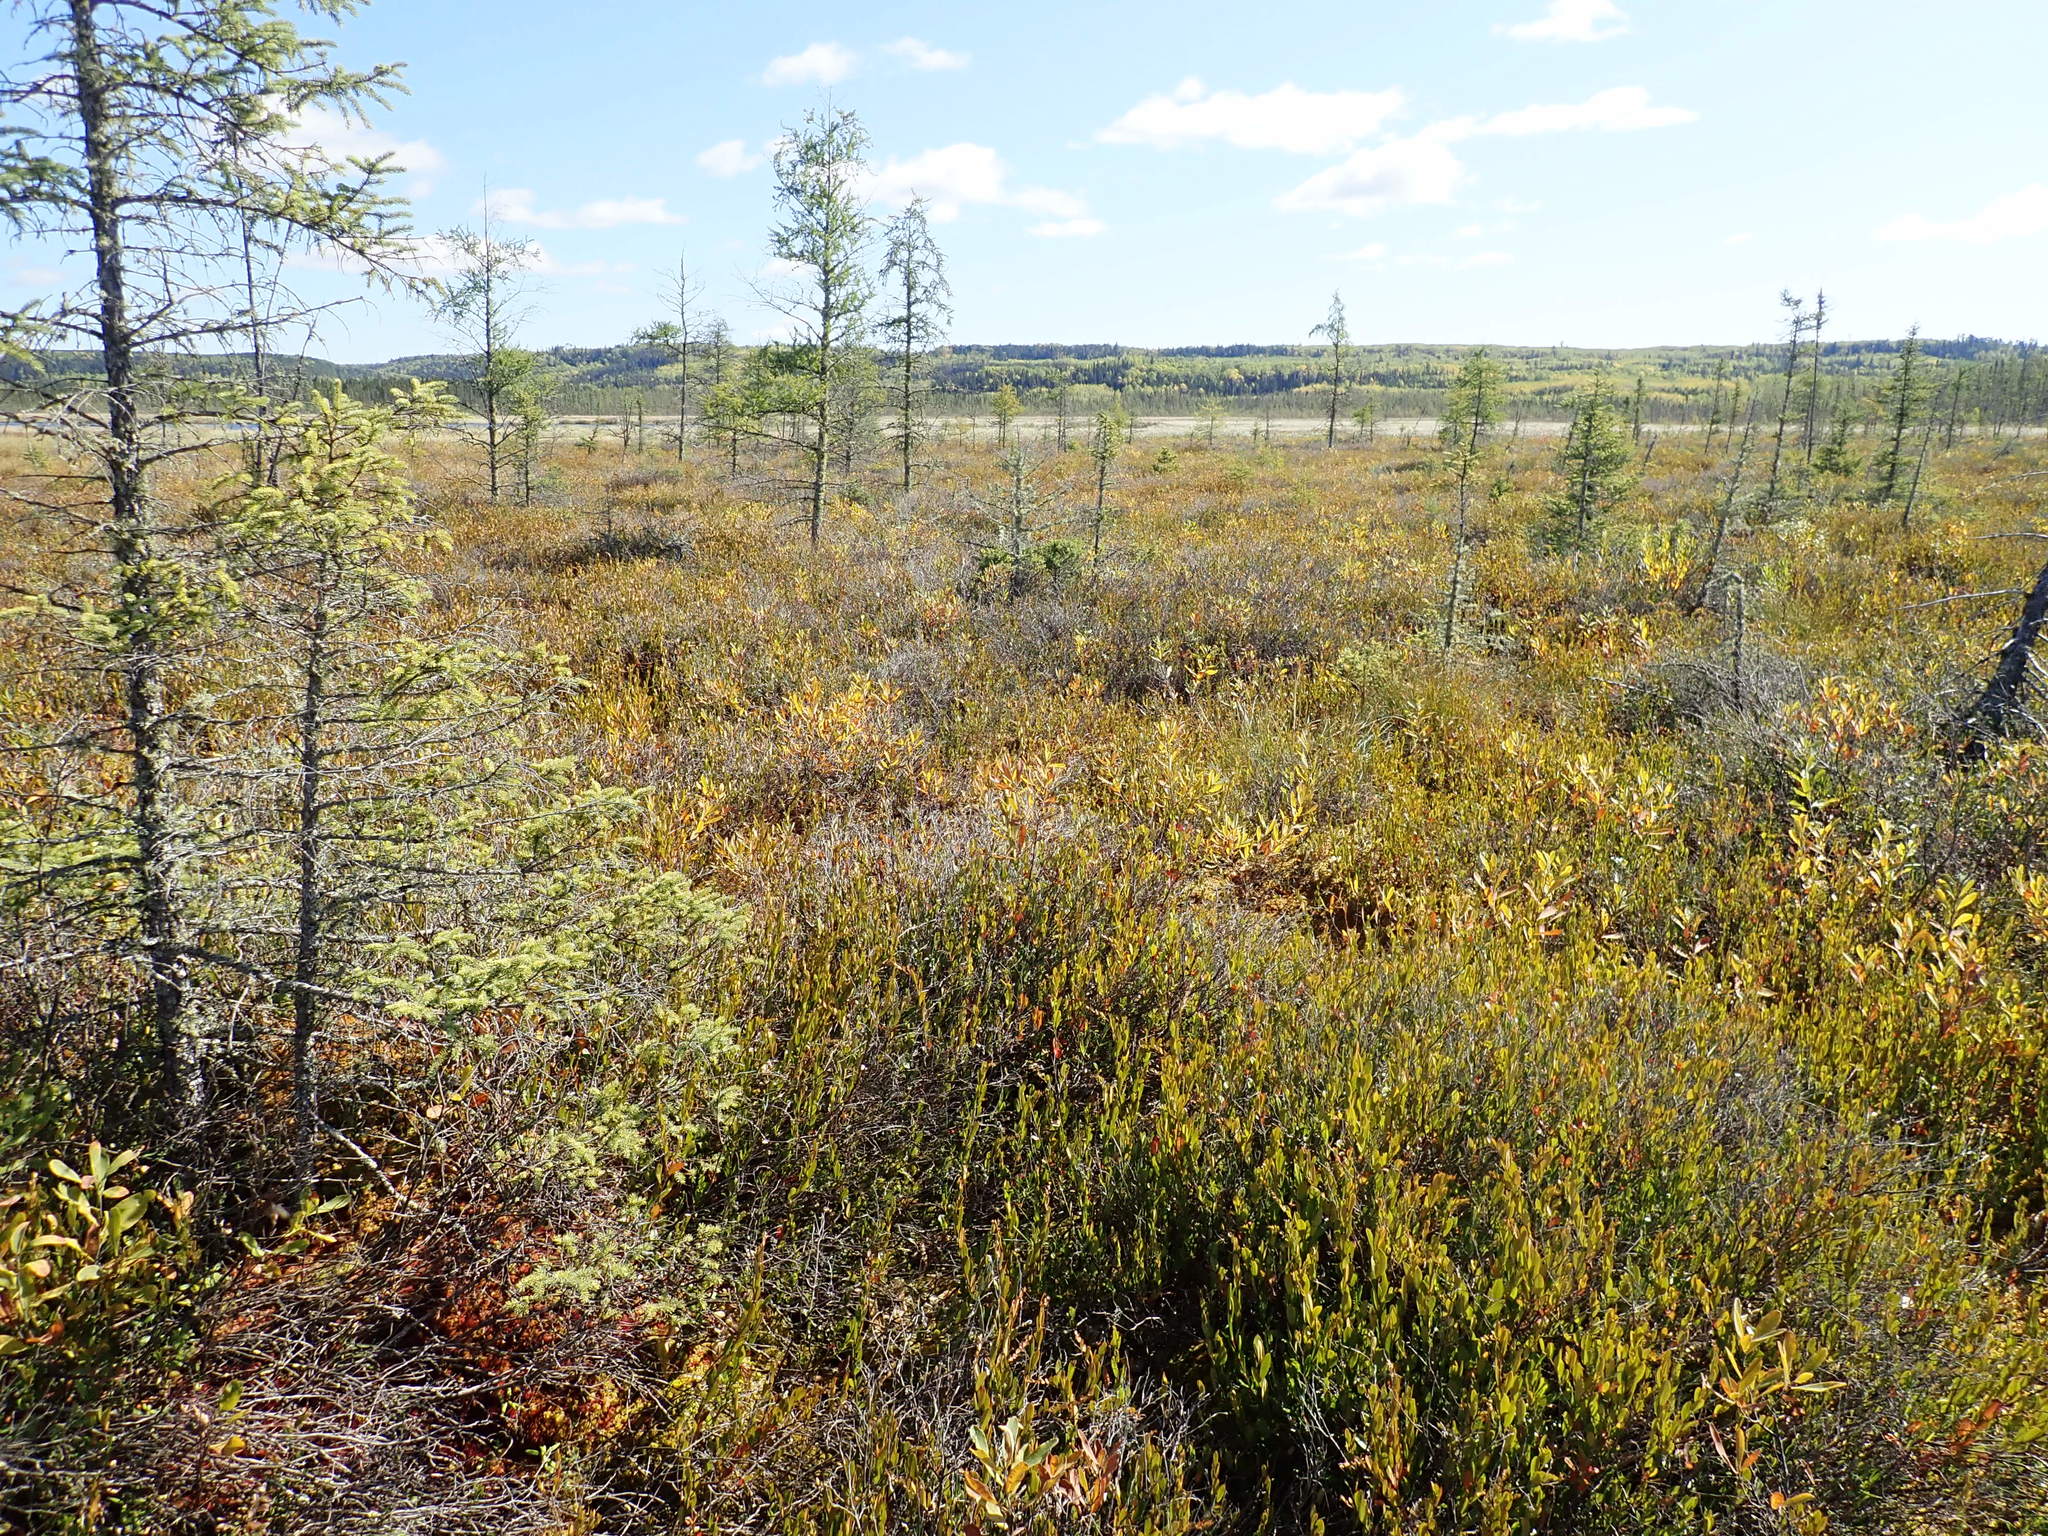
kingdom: Plantae
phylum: Tracheophyta
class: Pinopsida
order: Pinales
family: Pinaceae
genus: Picea
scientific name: Picea mariana
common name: Black spruce
